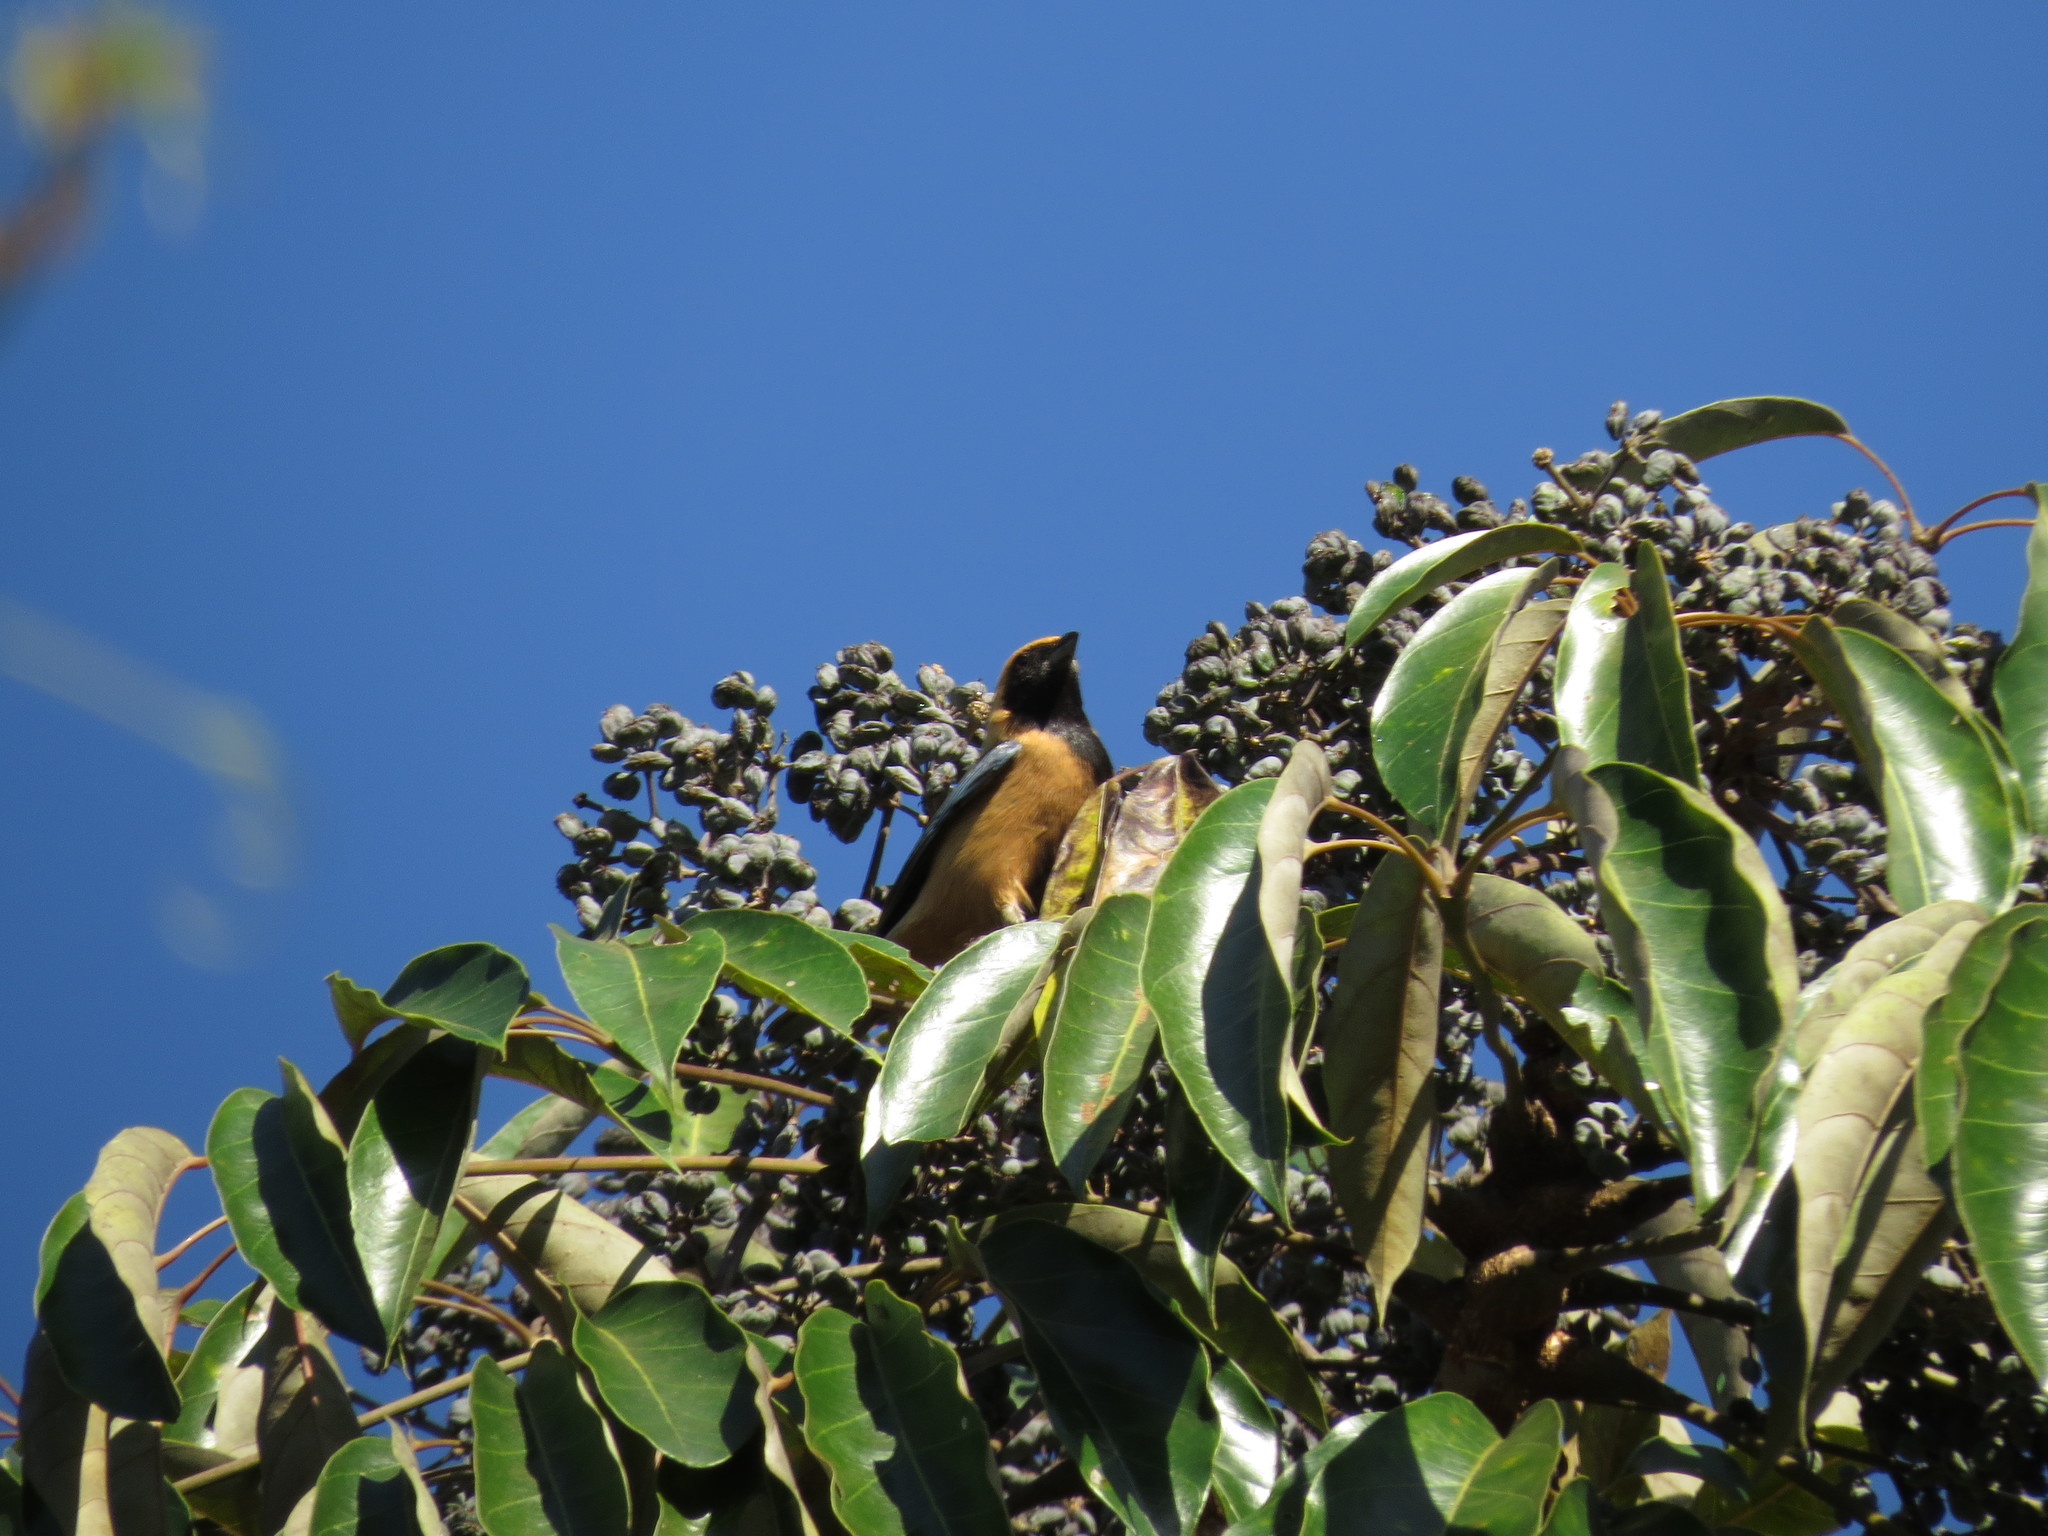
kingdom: Animalia
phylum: Chordata
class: Aves
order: Passeriformes
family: Thraupidae
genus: Stilpnia
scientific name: Stilpnia cayana
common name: Burnished-buff tanager
